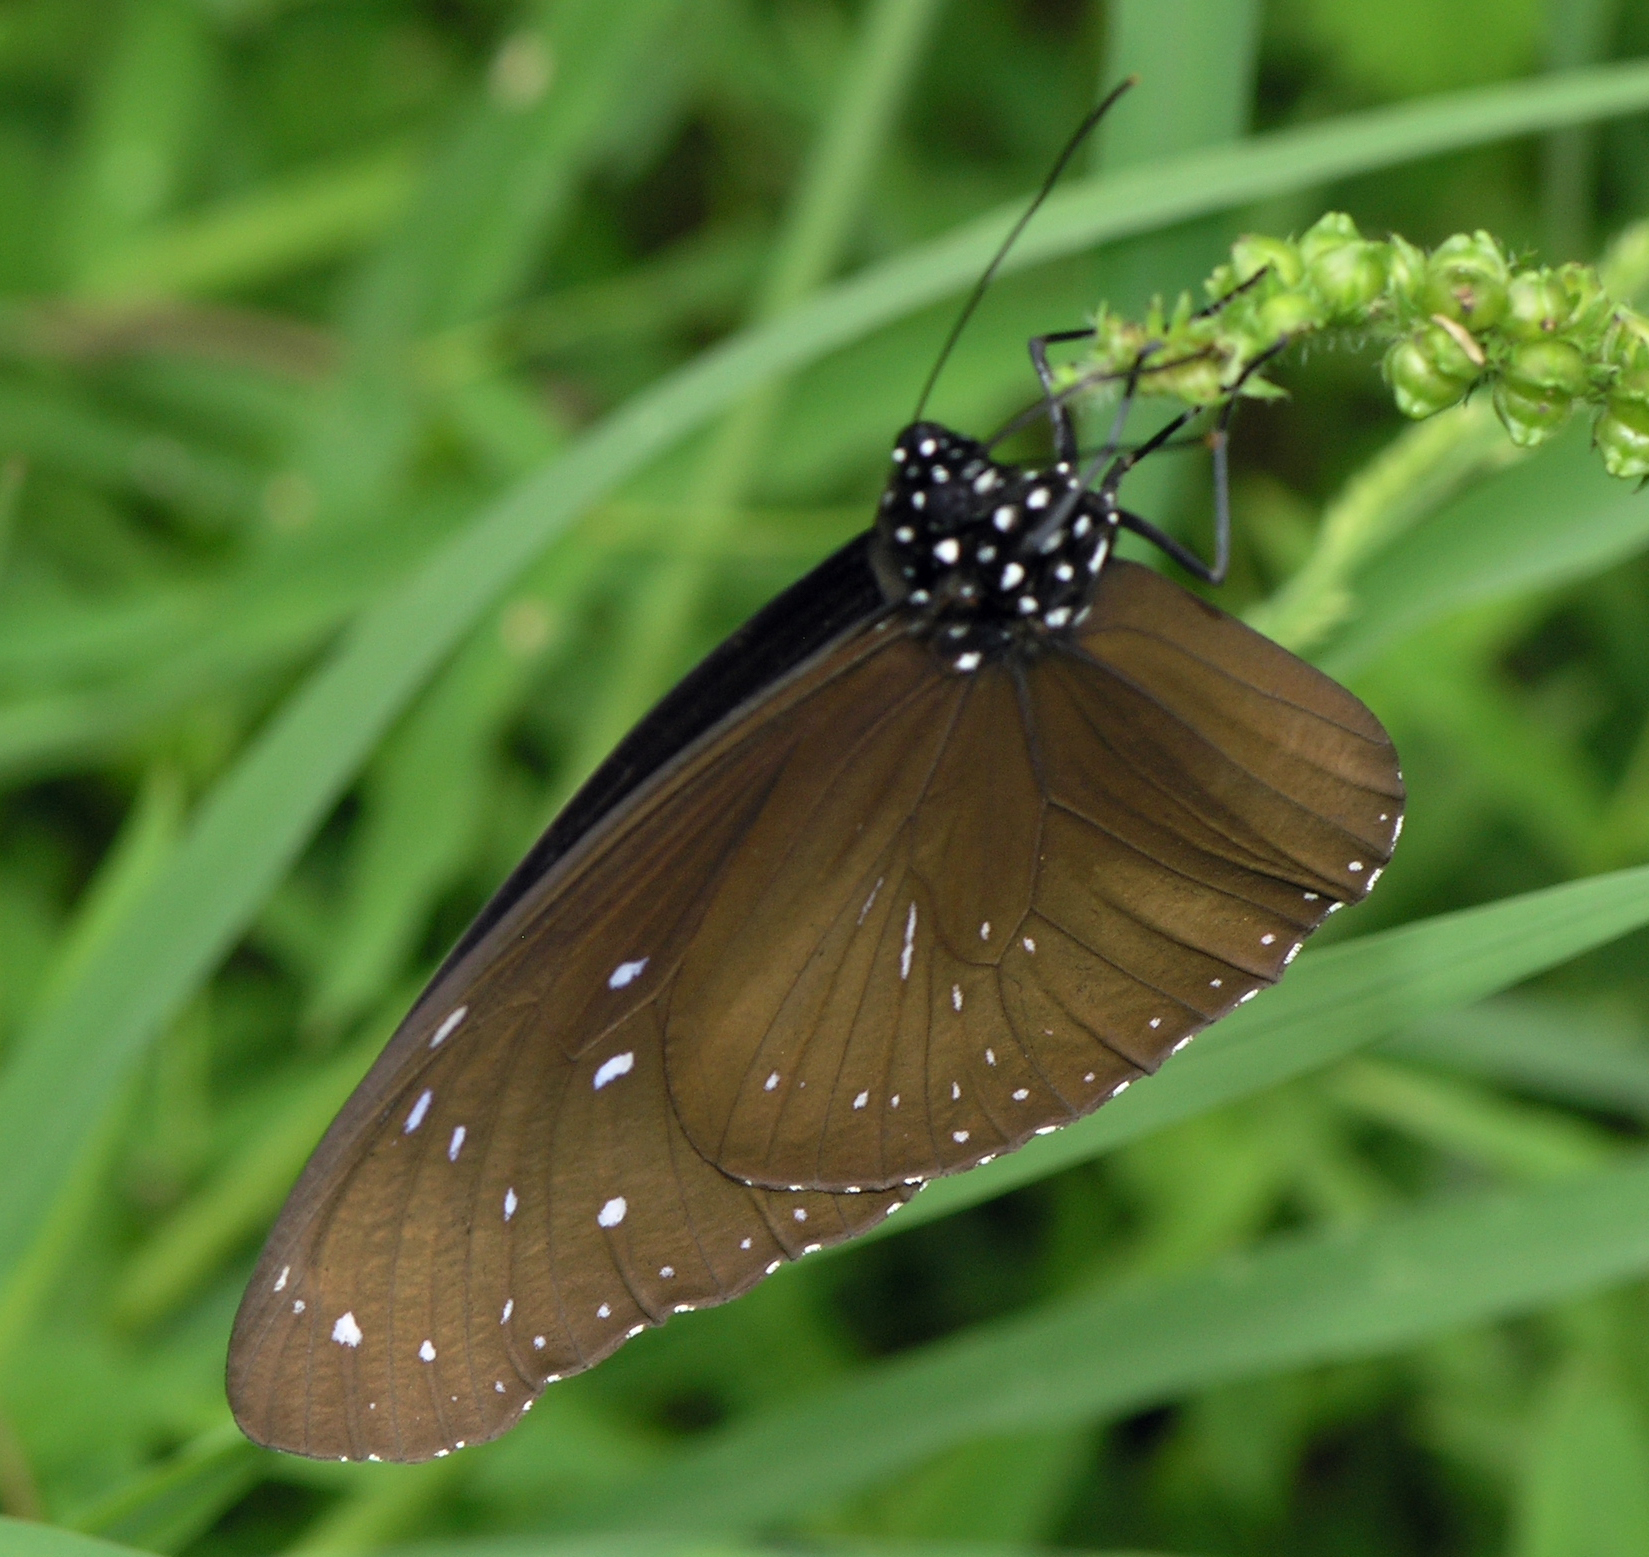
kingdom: Animalia
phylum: Arthropoda
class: Insecta
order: Lepidoptera
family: Nymphalidae
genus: Euploea
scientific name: Euploea mulciber
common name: Striped blue crow butterfly
